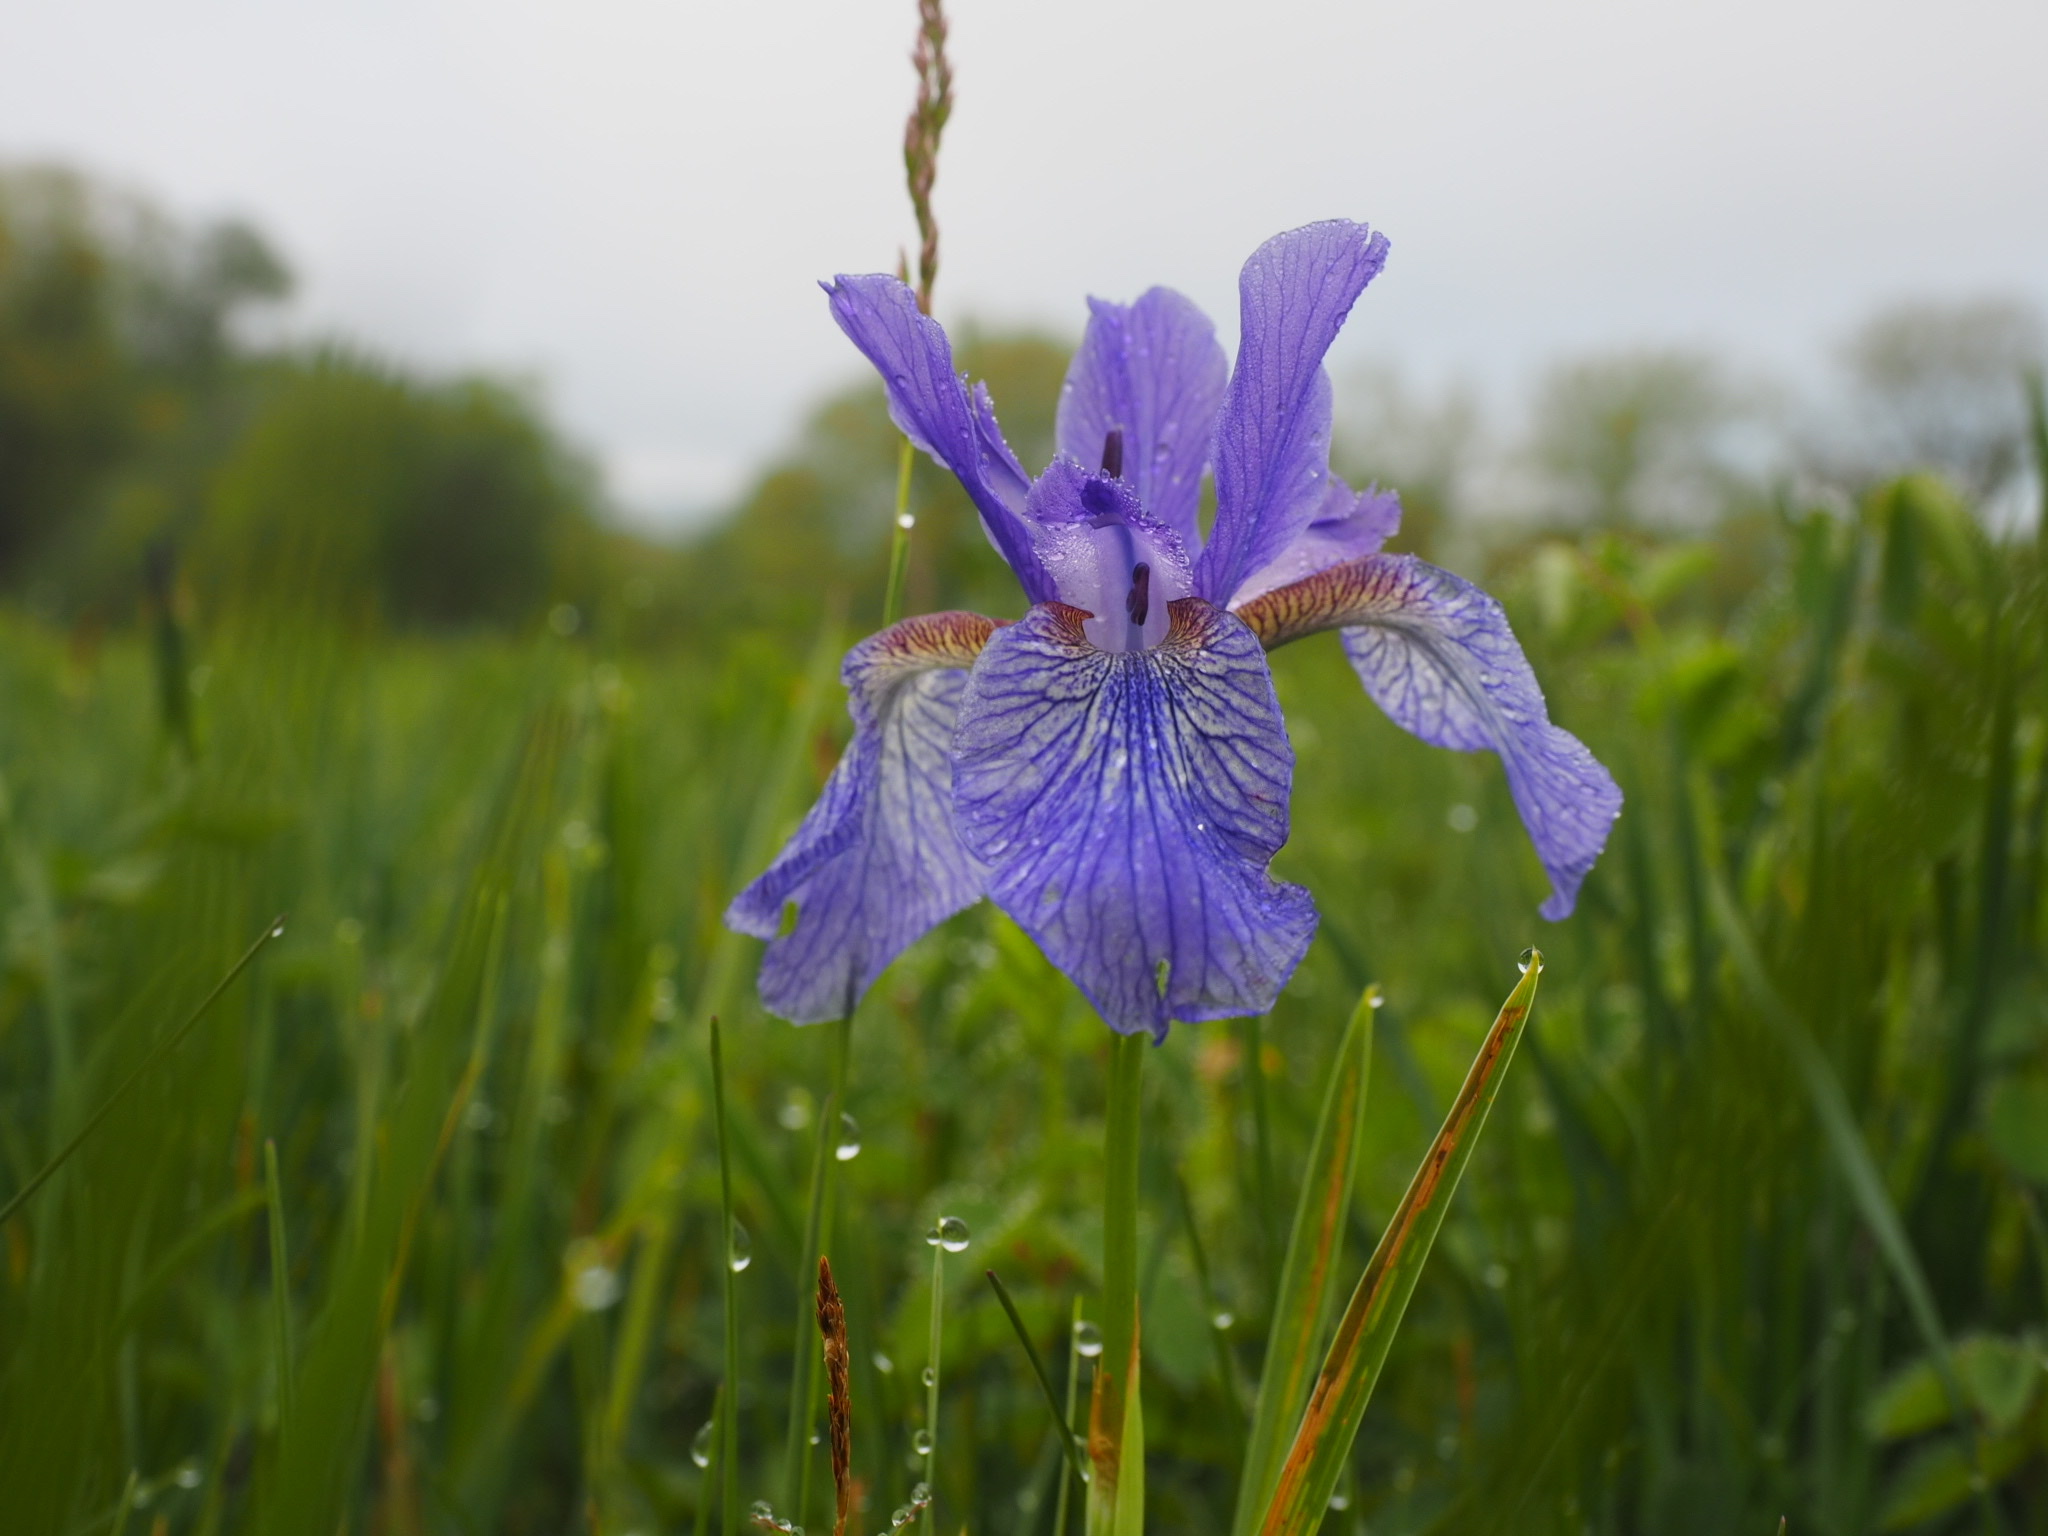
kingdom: Plantae
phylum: Tracheophyta
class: Liliopsida
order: Asparagales
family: Iridaceae
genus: Iris
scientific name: Iris sibirica
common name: Siberian iris
